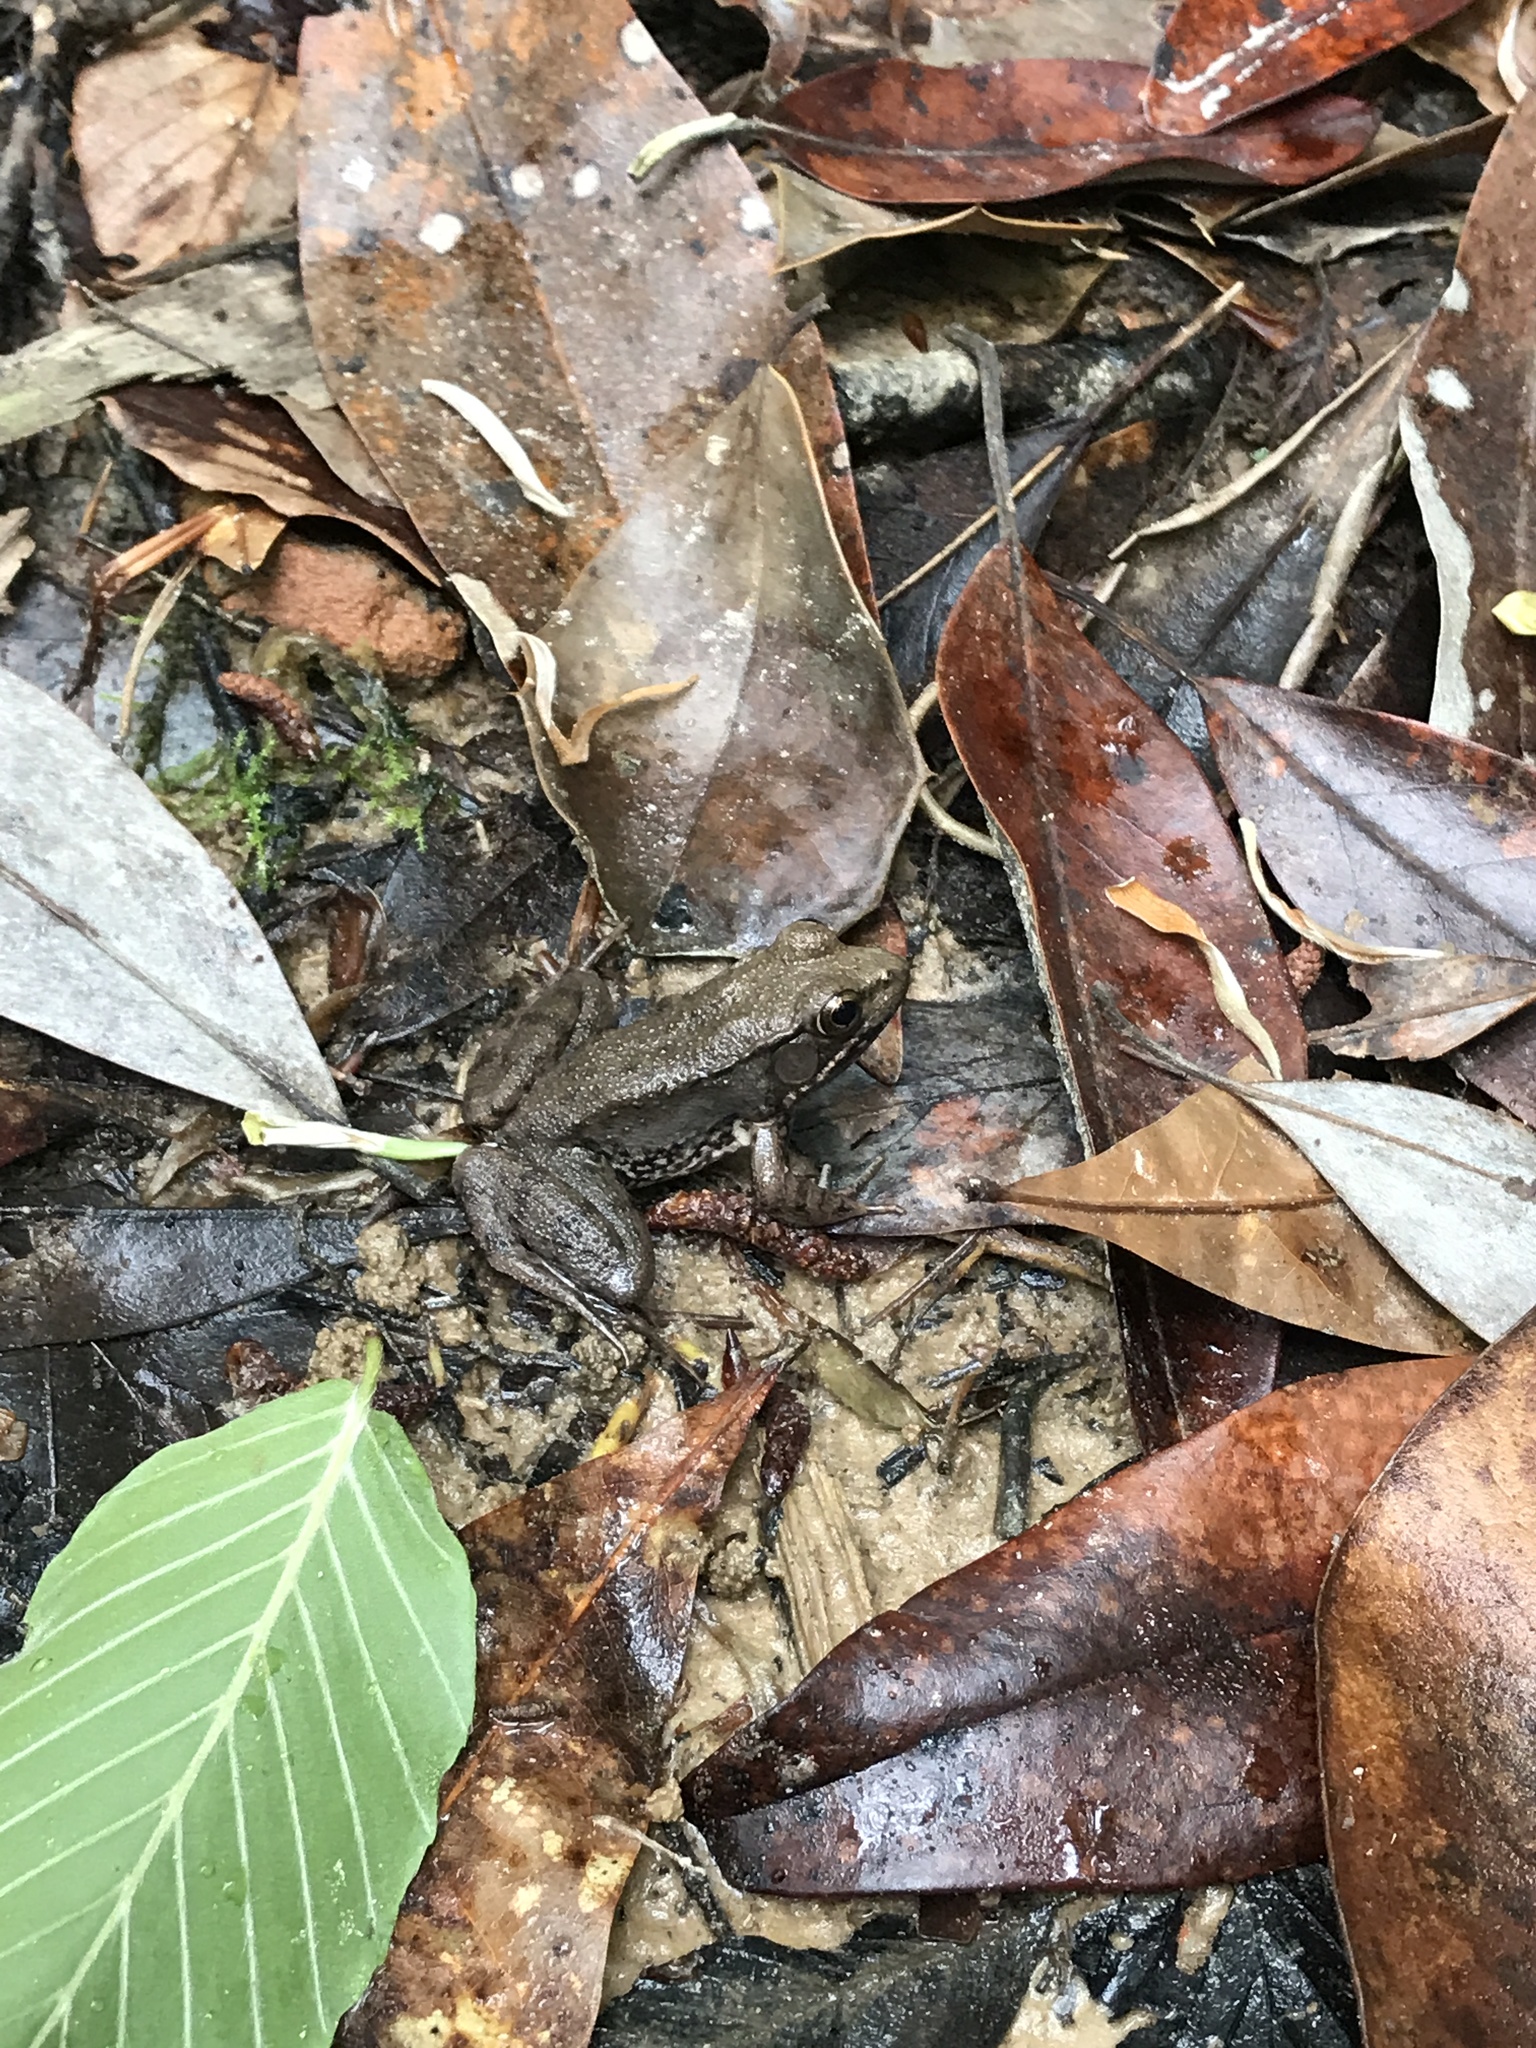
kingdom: Animalia
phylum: Chordata
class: Amphibia
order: Anura
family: Ranidae
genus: Lithobates
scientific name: Lithobates clamitans
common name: Green frog
